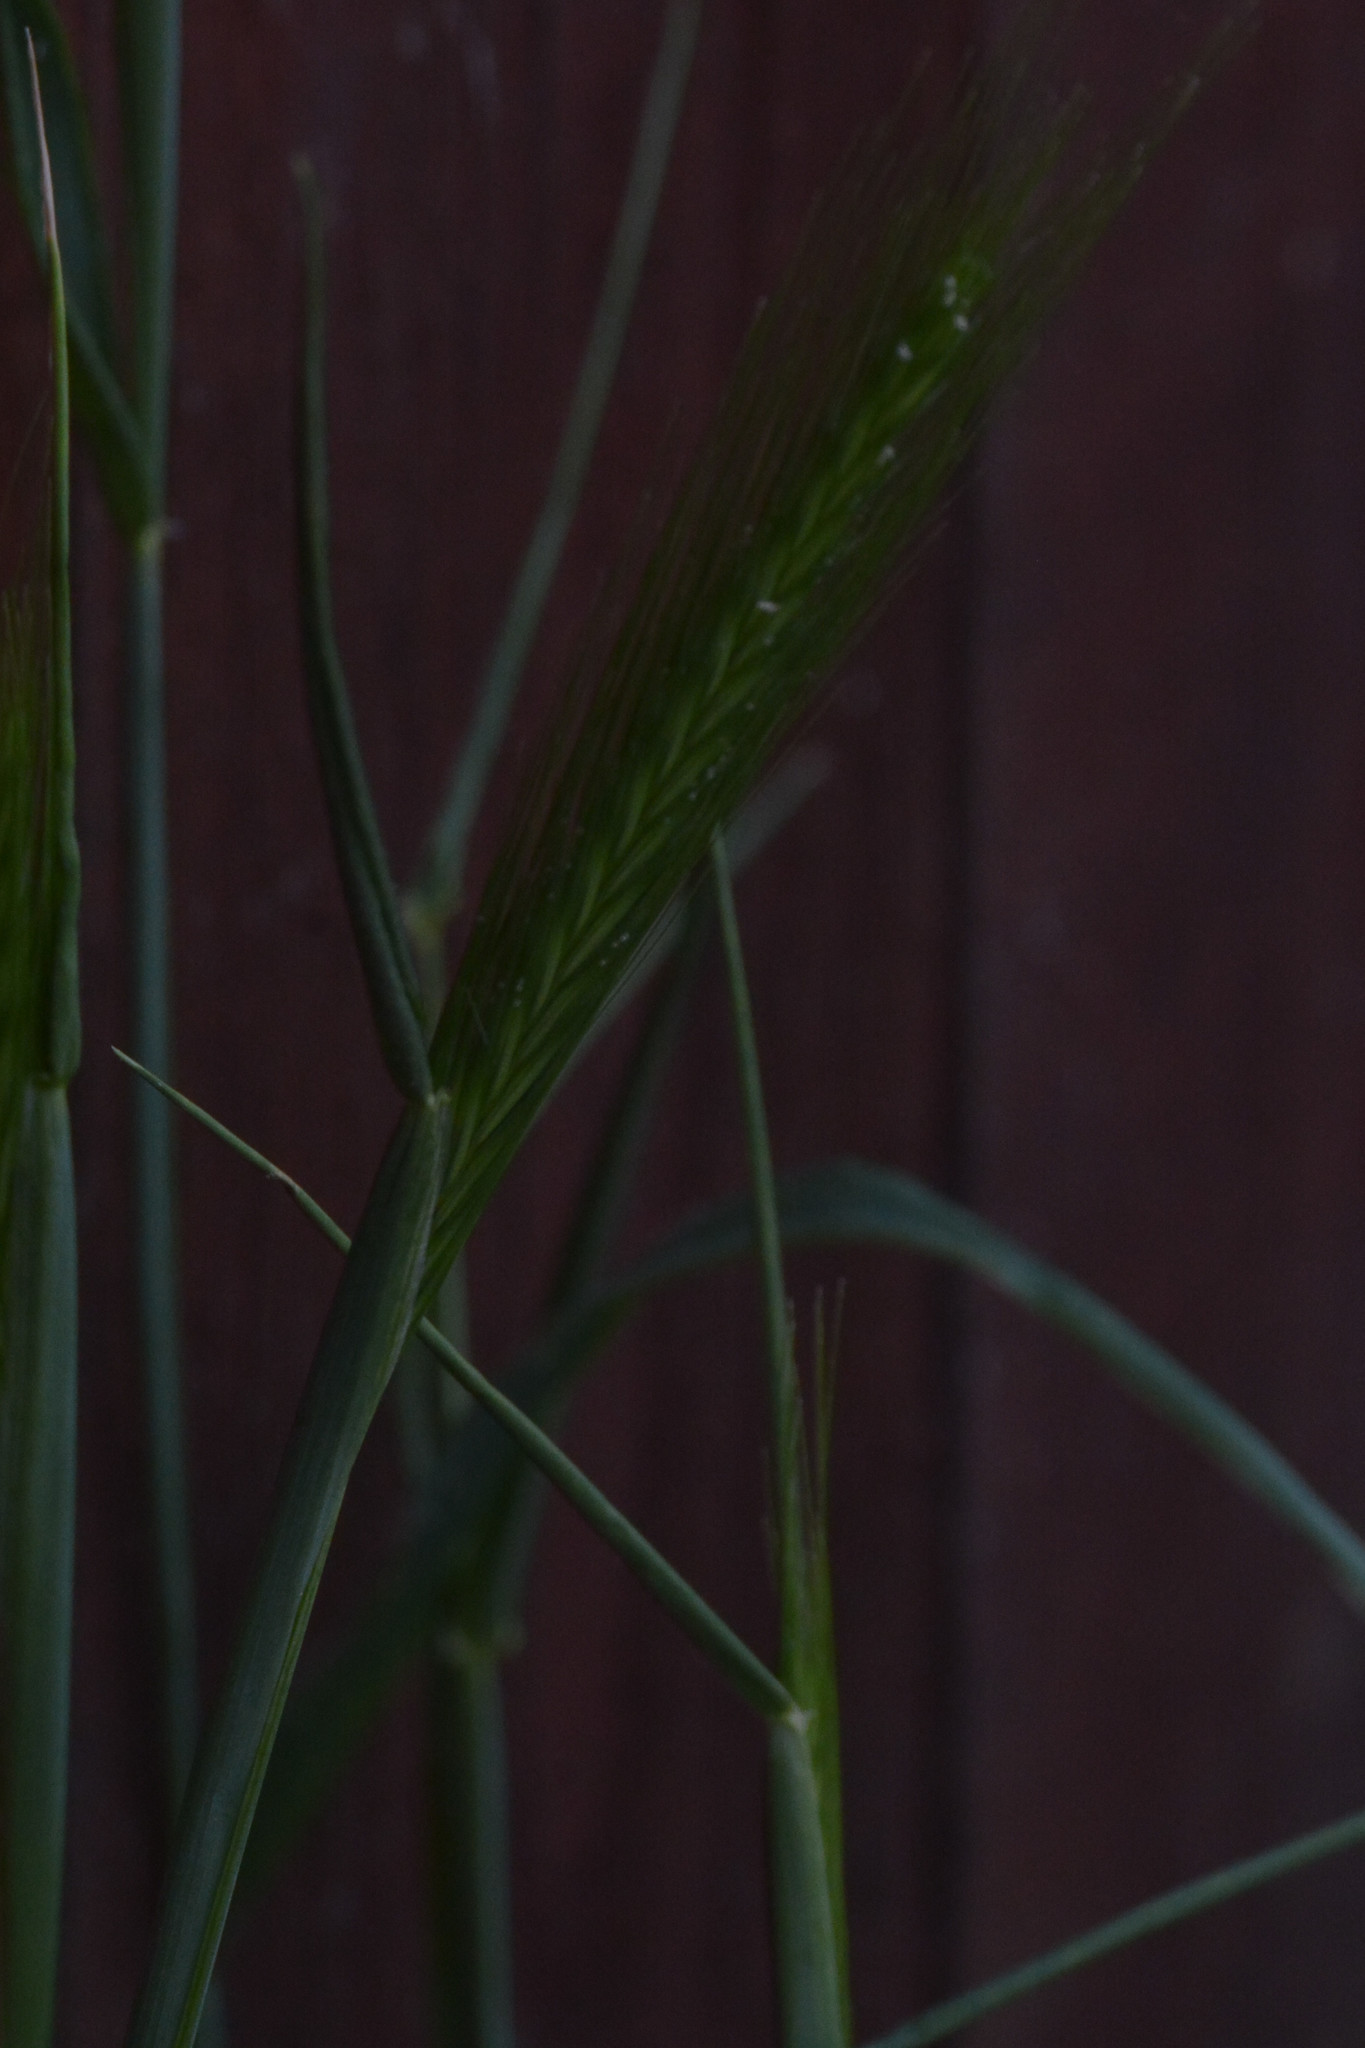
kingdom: Plantae
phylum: Tracheophyta
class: Liliopsida
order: Poales
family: Poaceae
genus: Hordeum
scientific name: Hordeum murinum
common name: Wall barley
